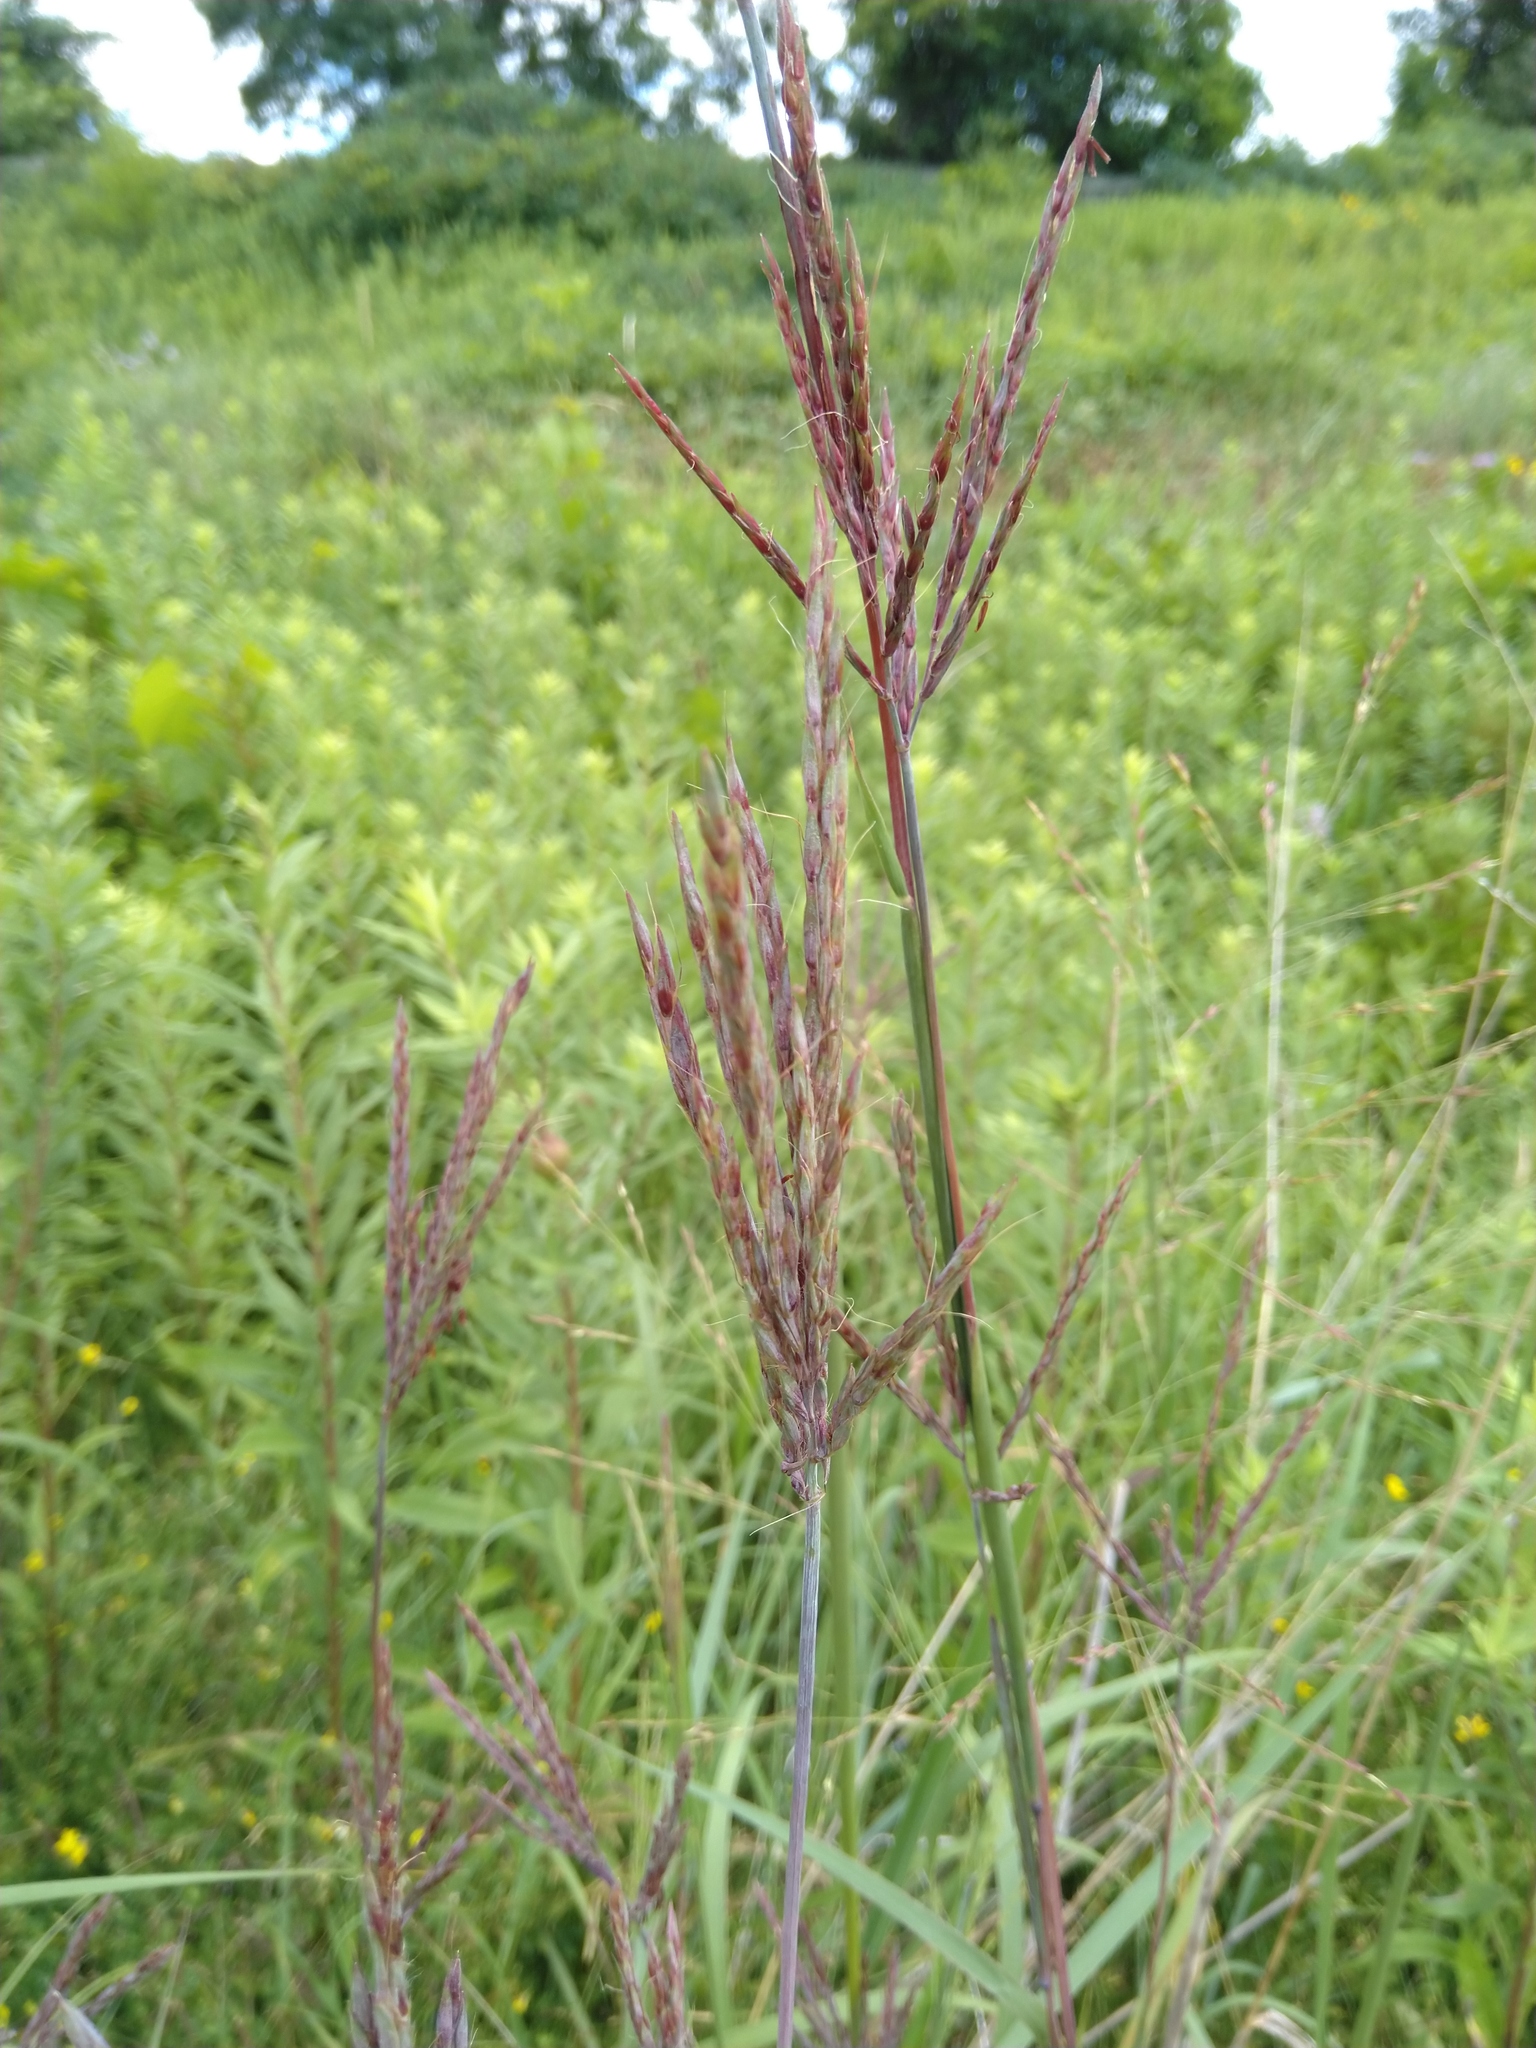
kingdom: Plantae
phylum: Tracheophyta
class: Liliopsida
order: Poales
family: Poaceae
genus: Andropogon
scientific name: Andropogon gerardi
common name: Big bluestem
